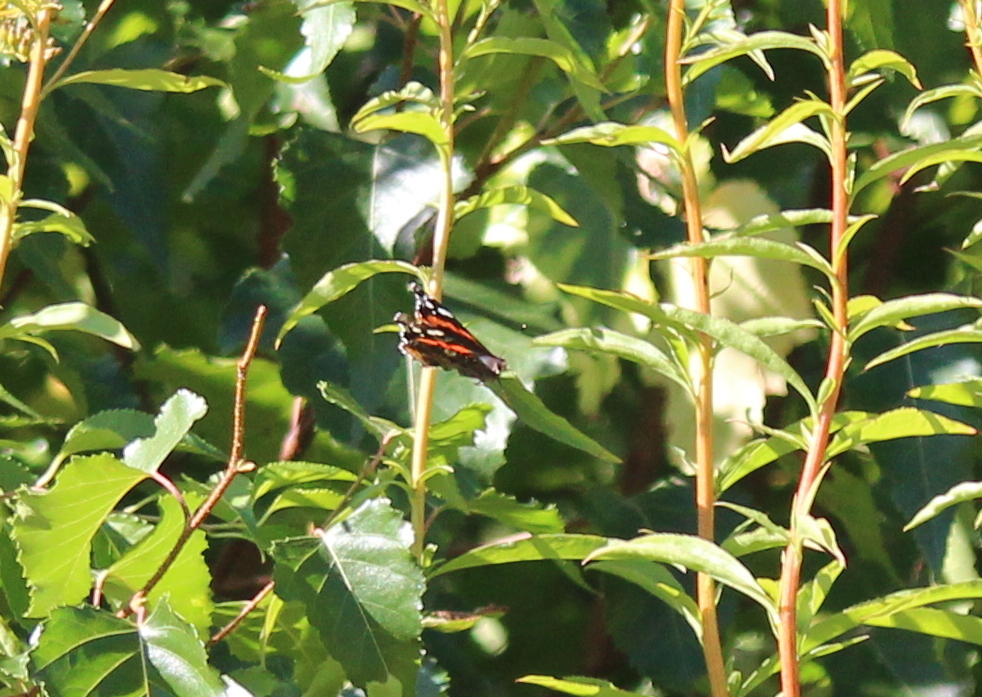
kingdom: Animalia
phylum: Arthropoda
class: Insecta
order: Lepidoptera
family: Nymphalidae
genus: Vanessa
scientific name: Vanessa atalanta
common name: Red admiral
